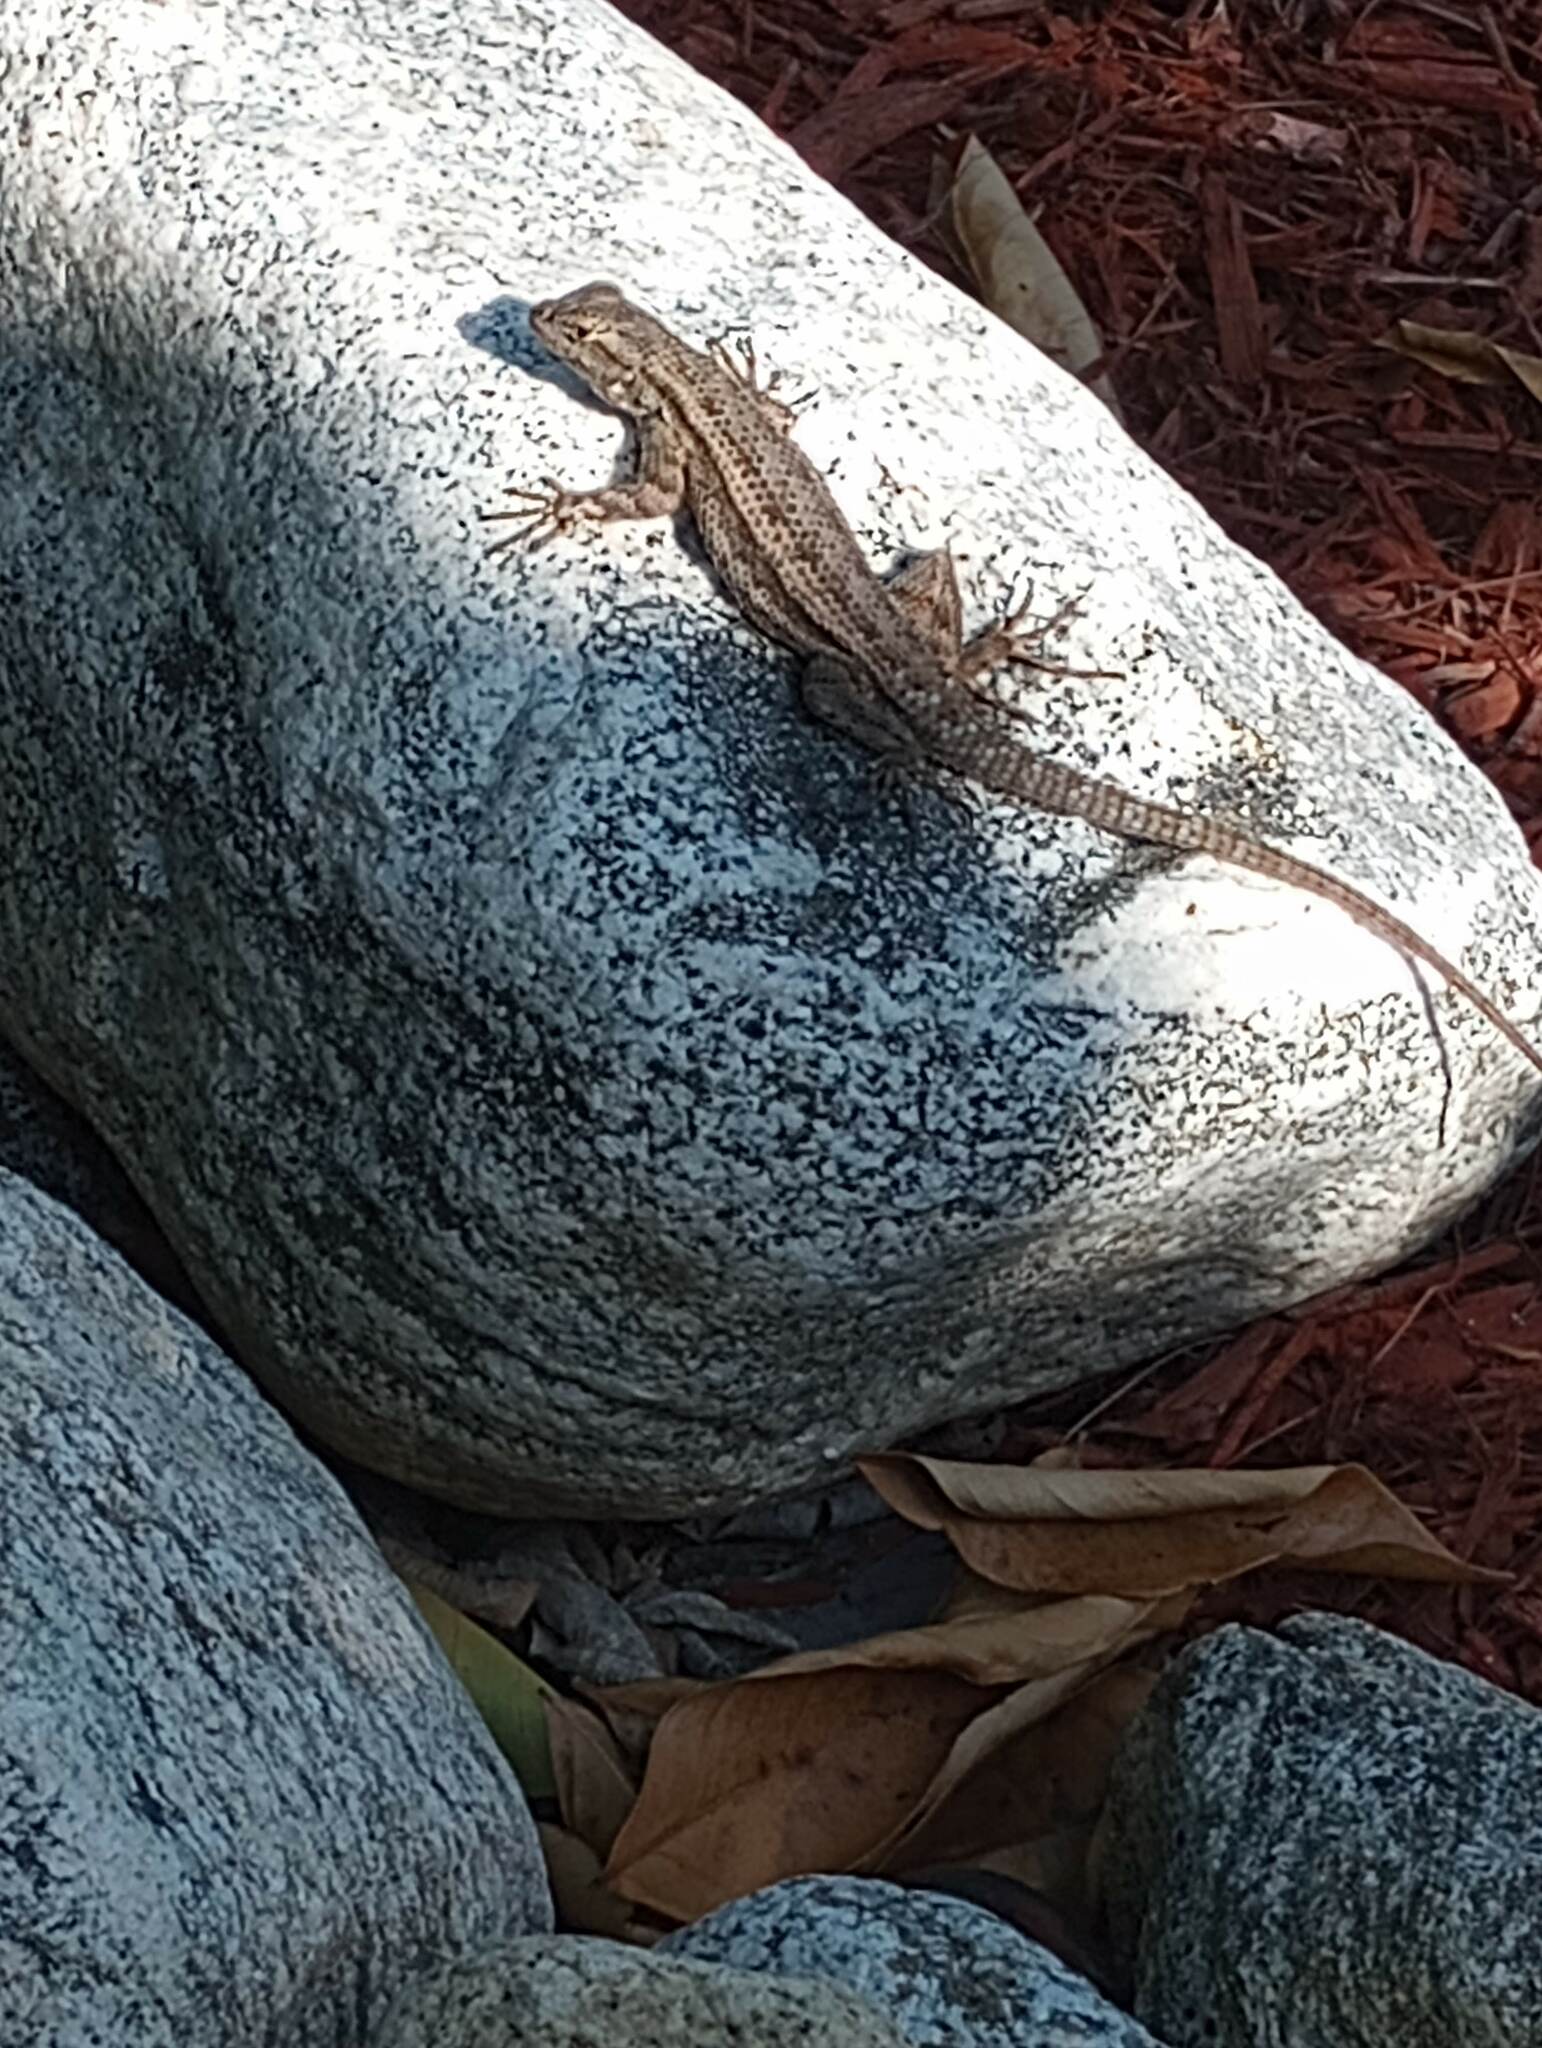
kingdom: Animalia
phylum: Chordata
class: Squamata
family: Phrynosomatidae
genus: Sceloporus
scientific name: Sceloporus occidentalis
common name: Western fence lizard
